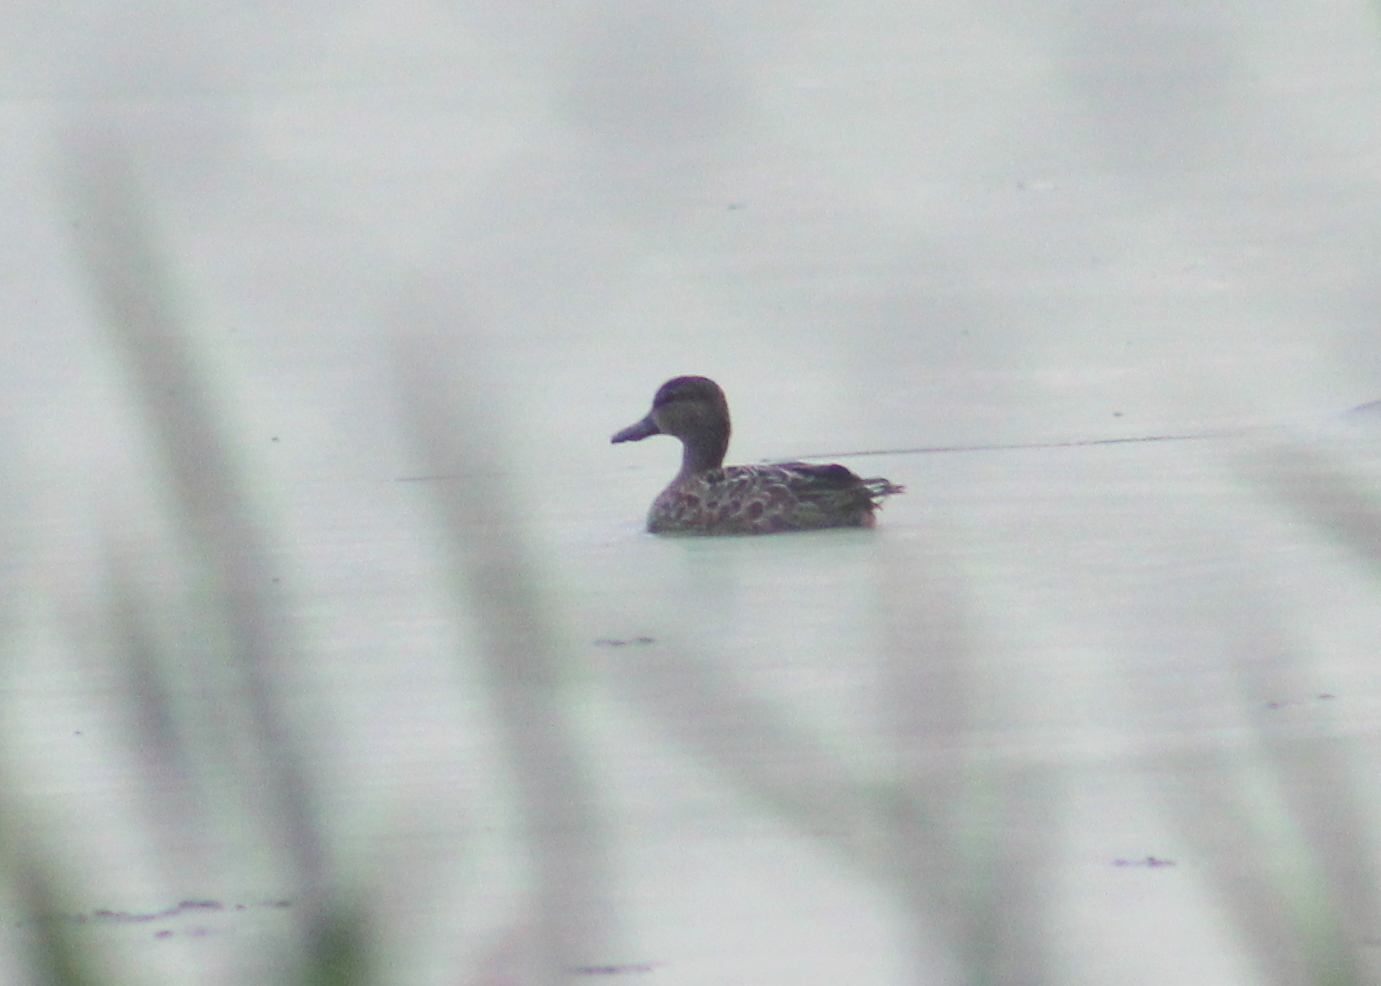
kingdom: Animalia
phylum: Chordata
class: Aves
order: Anseriformes
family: Anatidae
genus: Spatula
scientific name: Spatula discors
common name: Blue-winged teal
